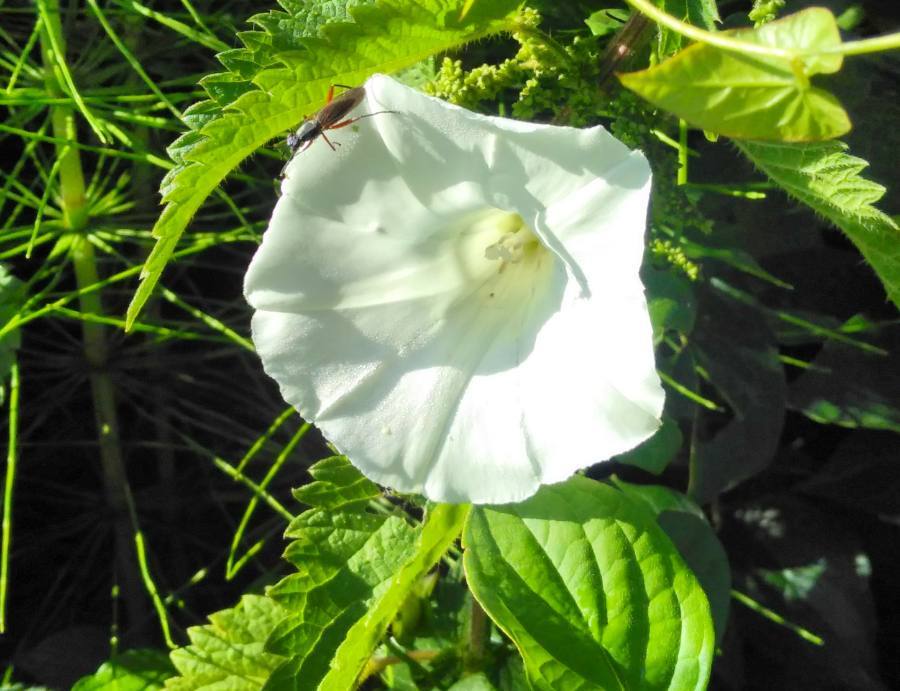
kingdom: Plantae
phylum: Tracheophyta
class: Magnoliopsida
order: Solanales
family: Convolvulaceae
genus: Calystegia
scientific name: Calystegia sepium
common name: Hedge bindweed
